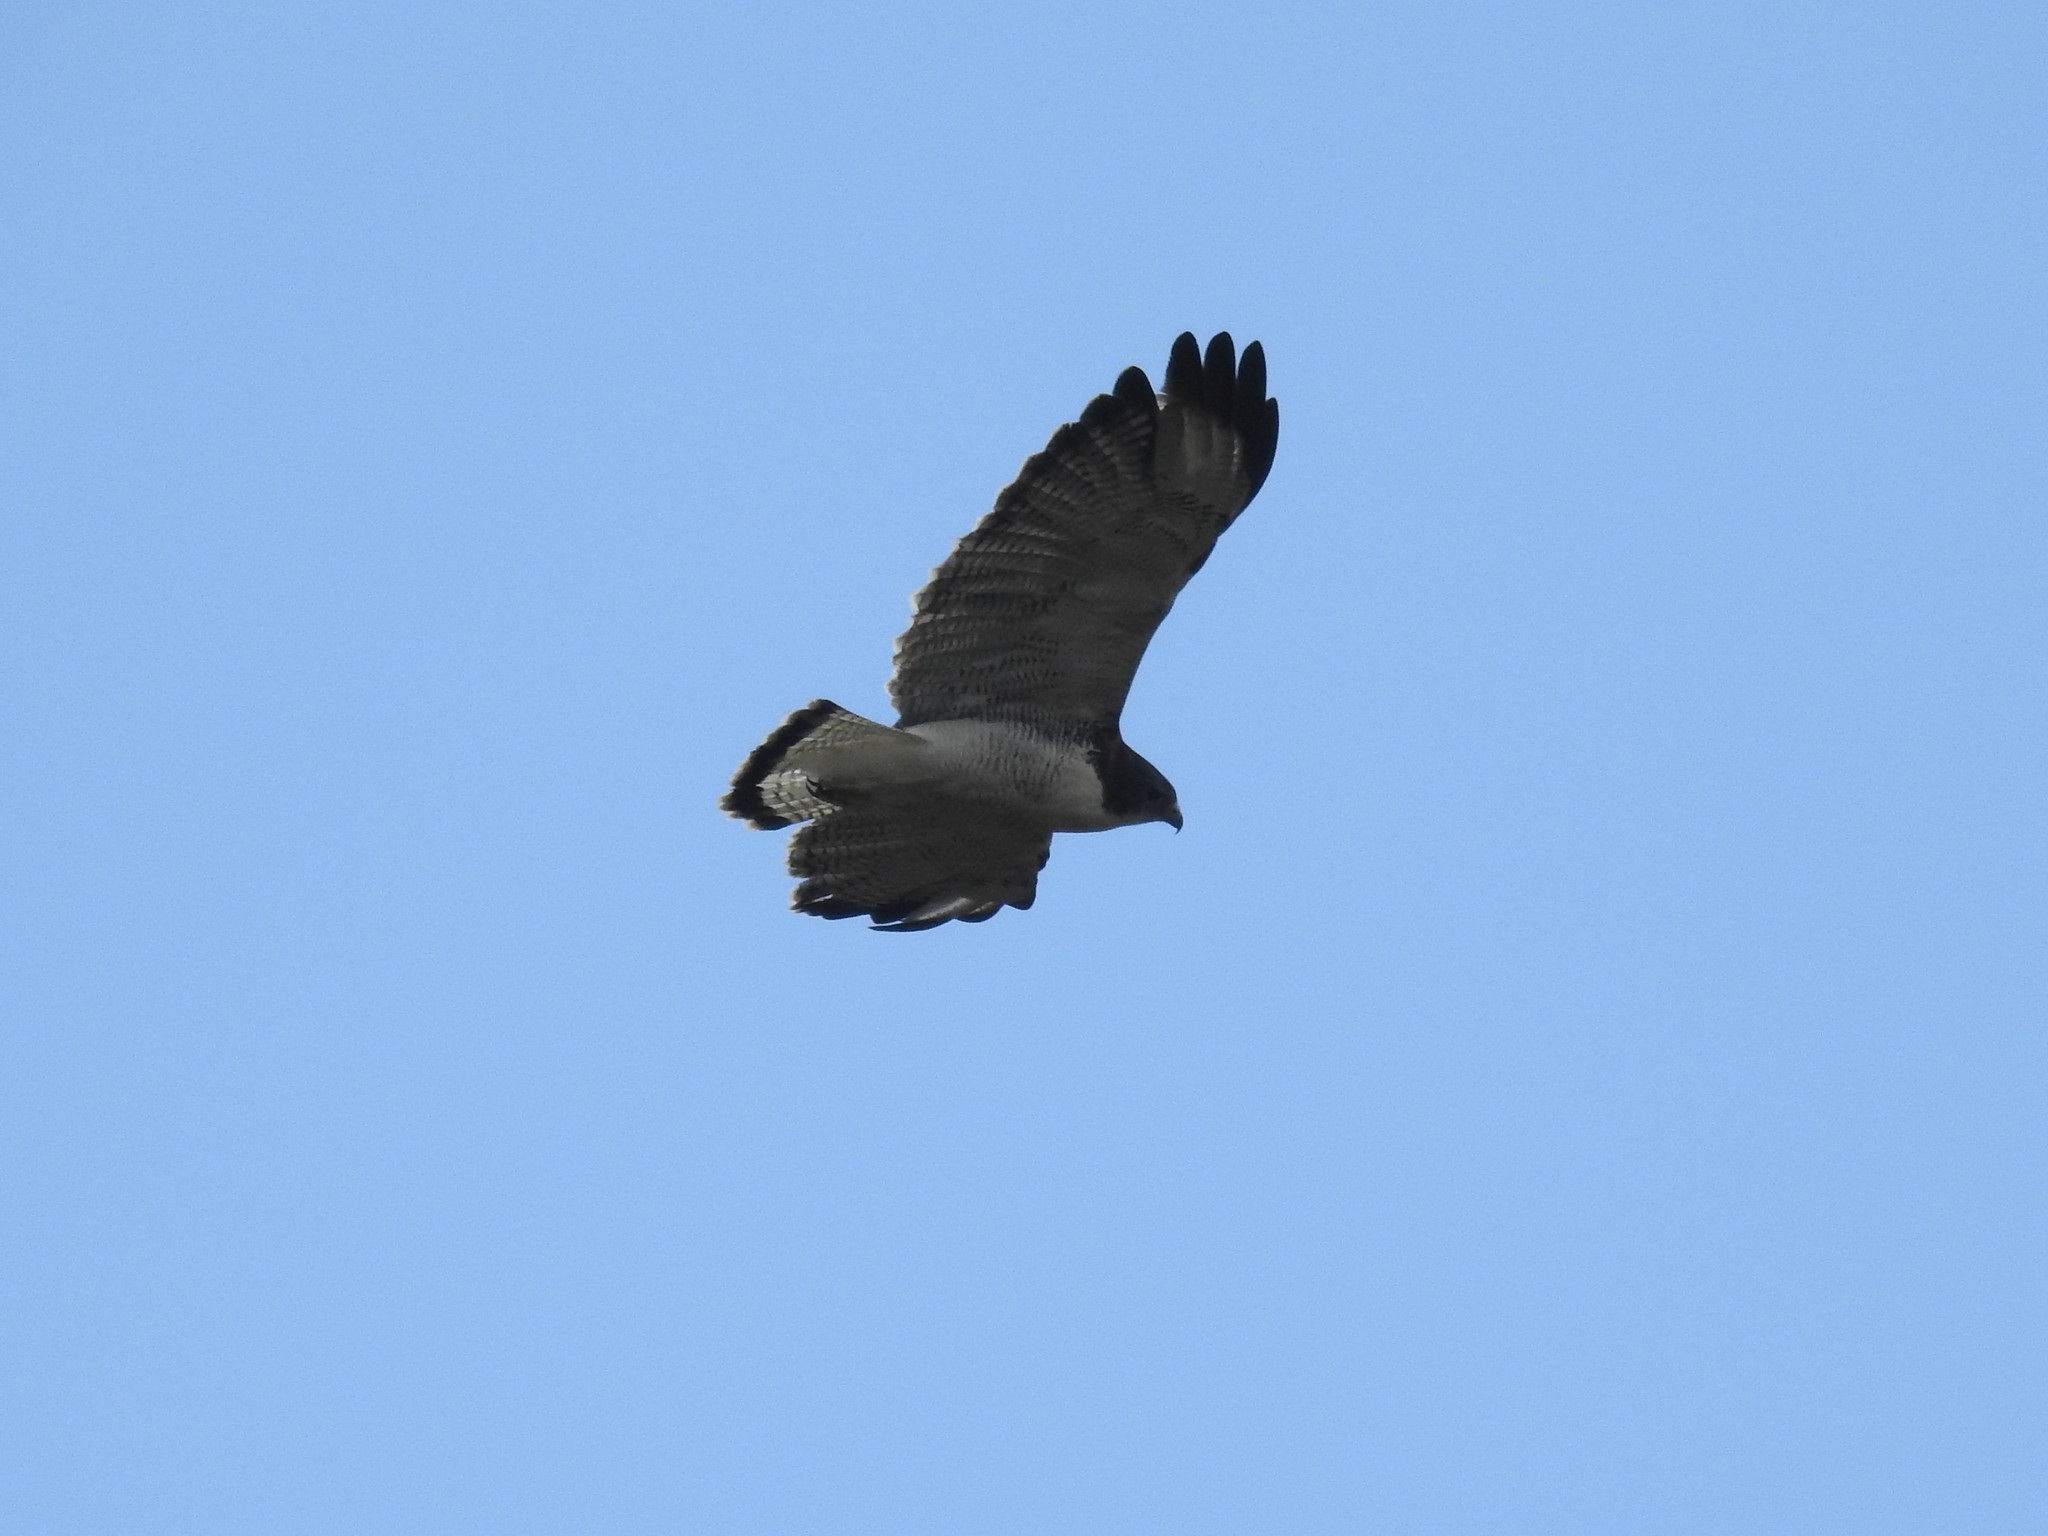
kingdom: Animalia
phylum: Chordata
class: Aves
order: Accipitriformes
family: Accipitridae
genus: Buteo
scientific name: Buteo polyosoma
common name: Variable hawk
